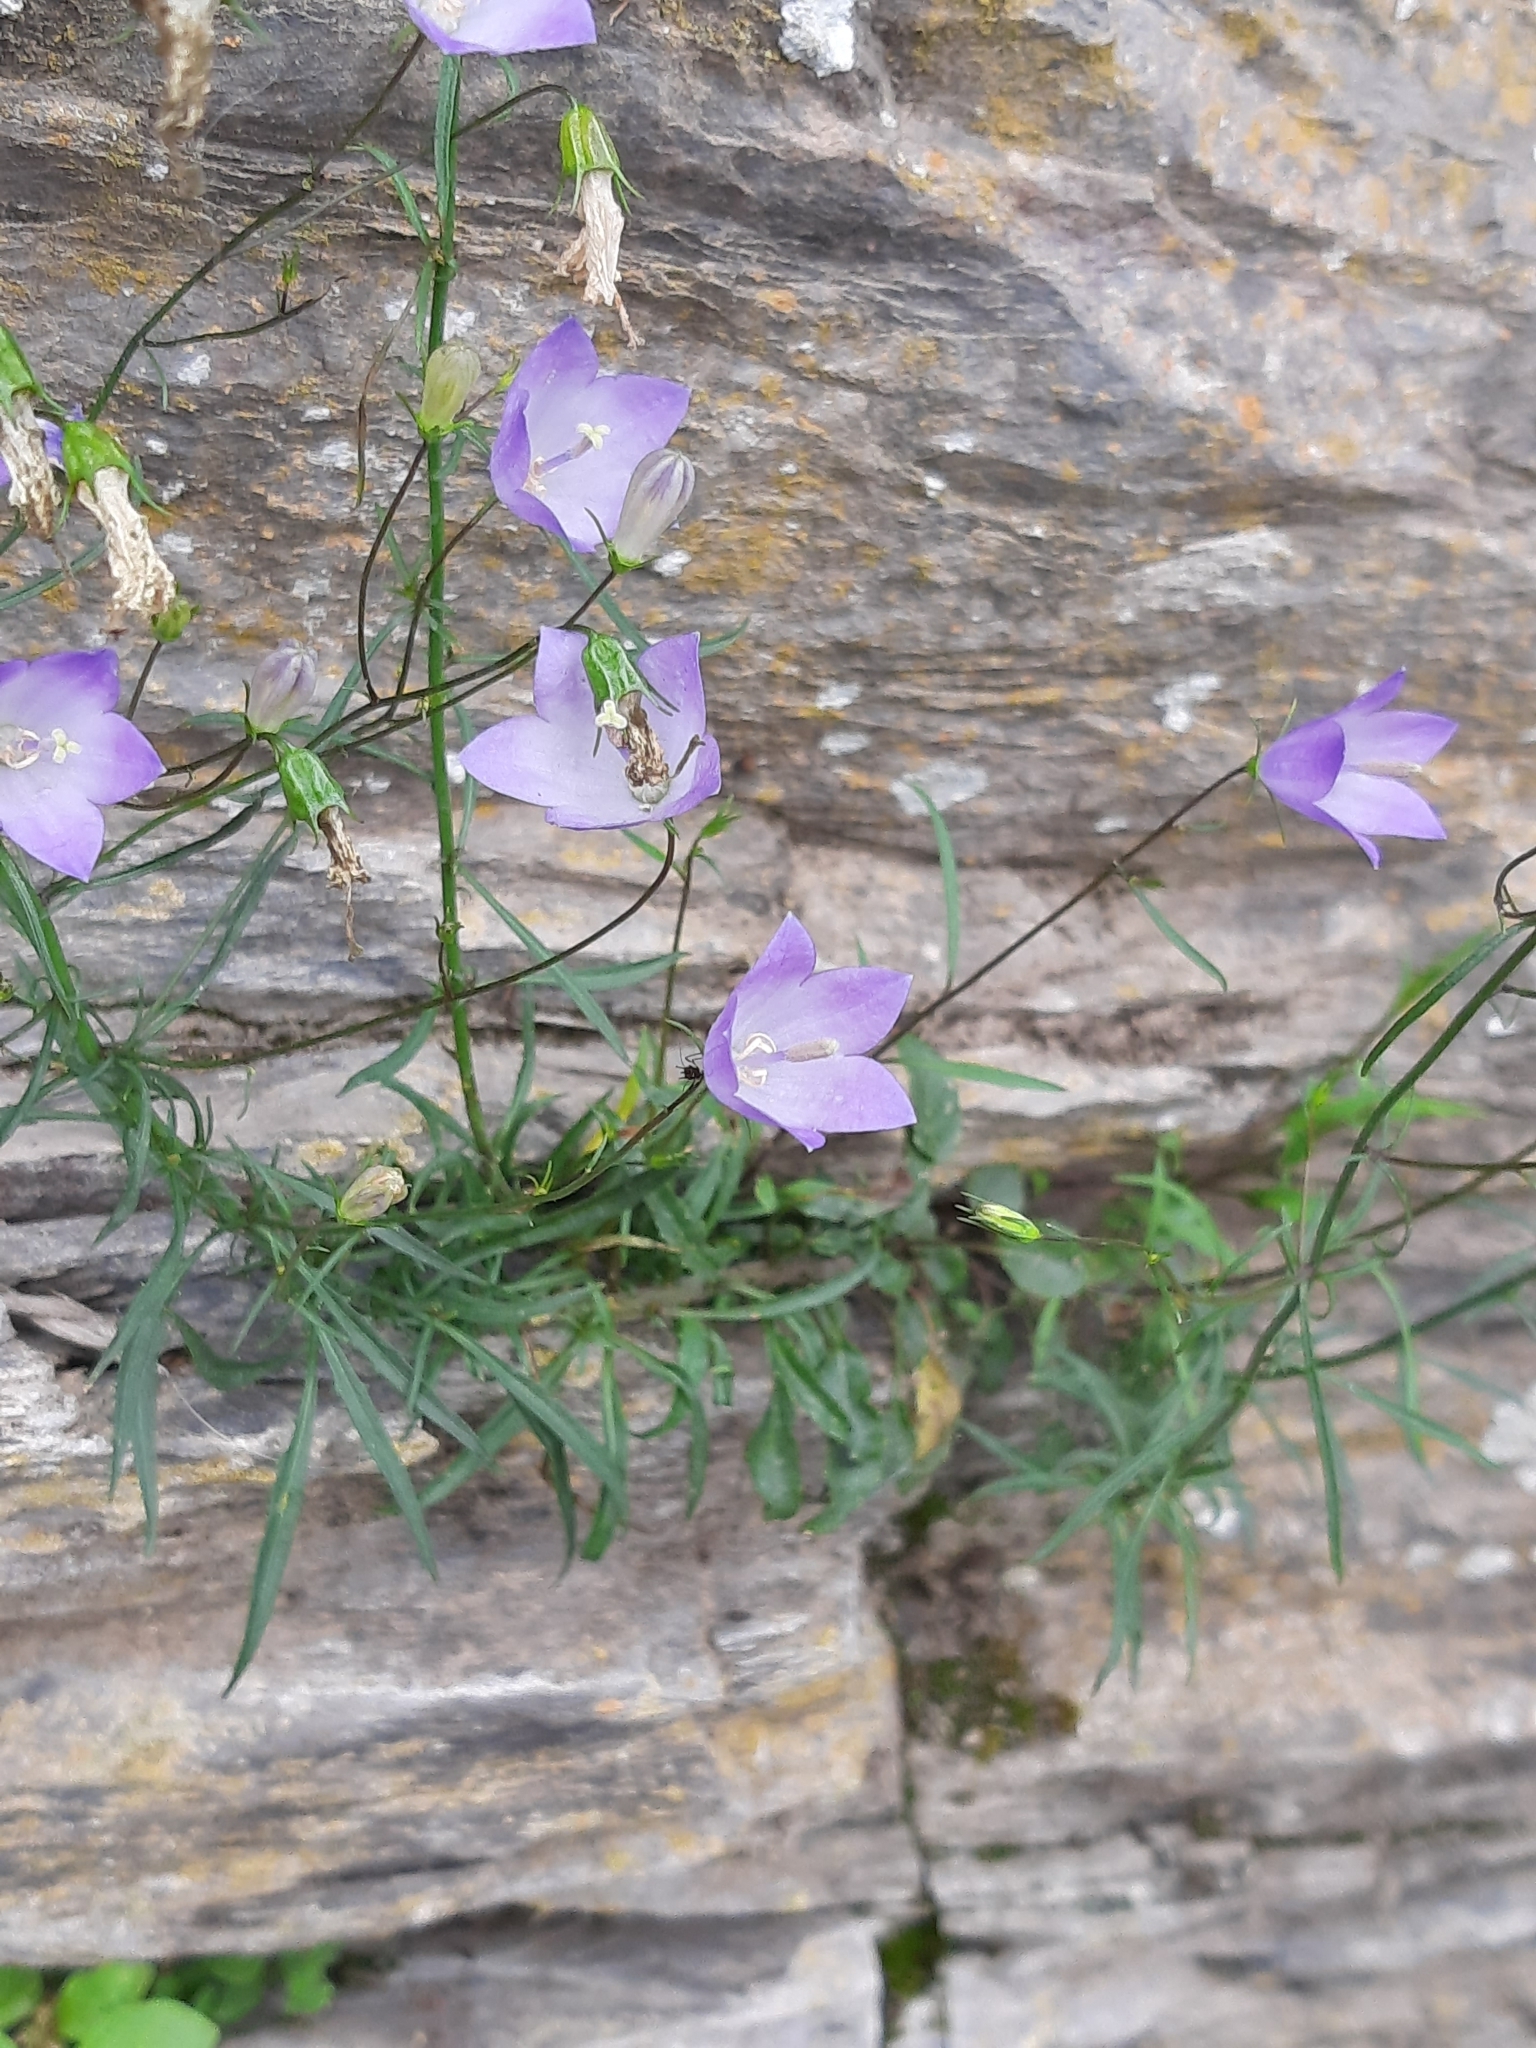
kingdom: Plantae
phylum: Tracheophyta
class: Magnoliopsida
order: Asterales
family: Campanulaceae
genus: Campanula
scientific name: Campanula rotundifolia
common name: Harebell
